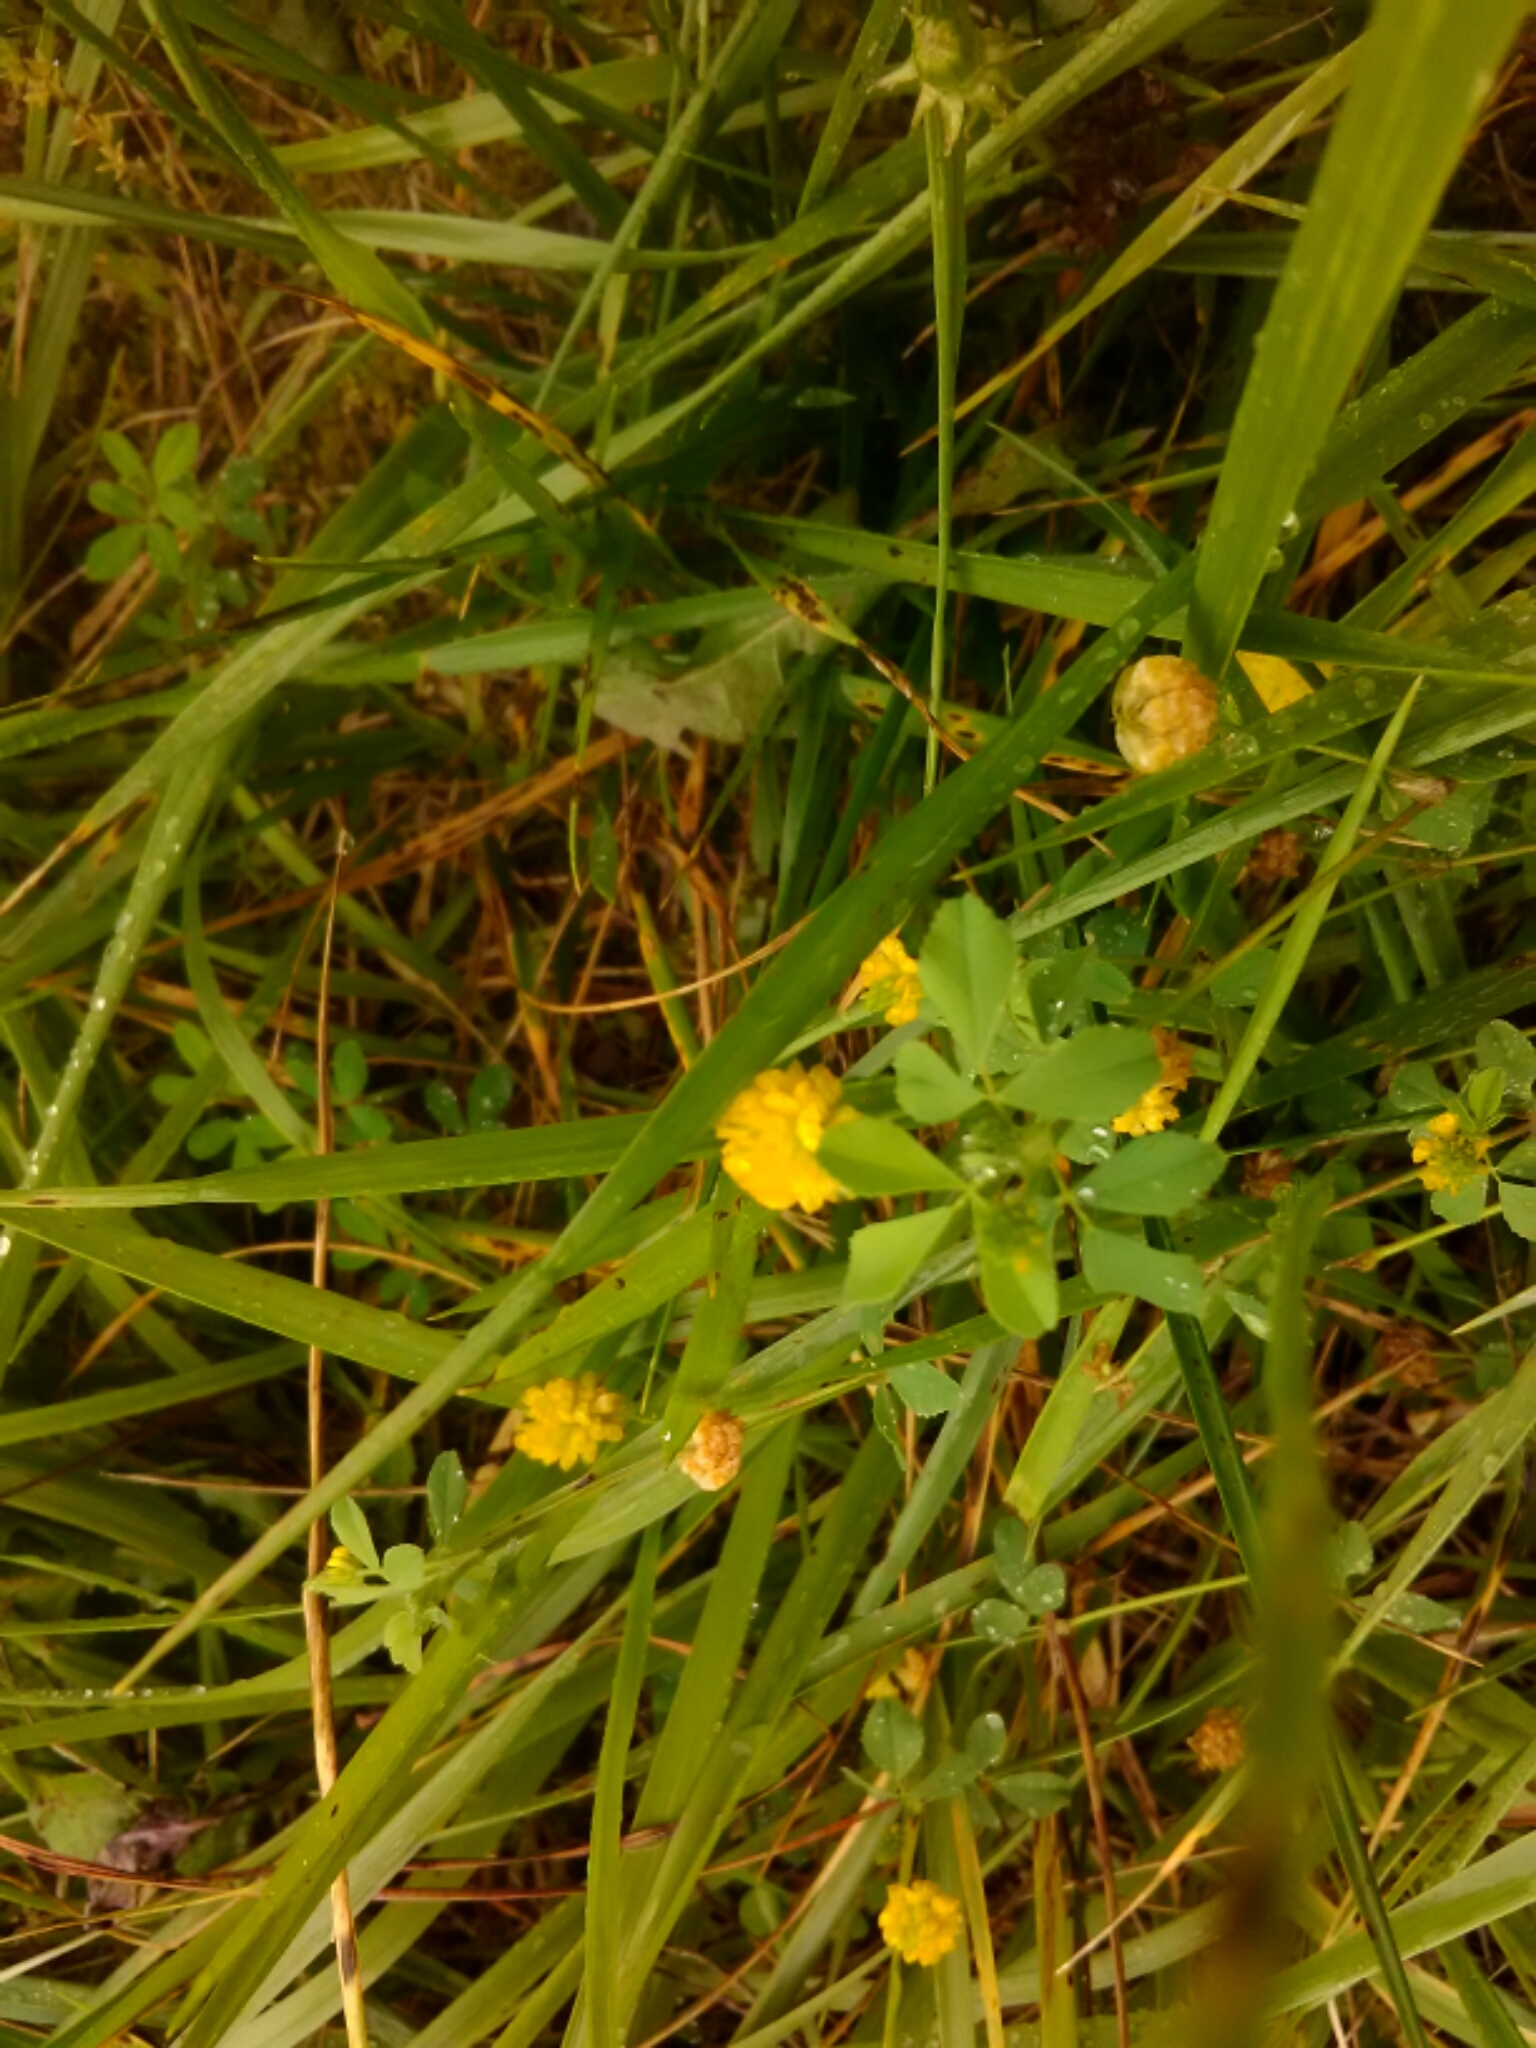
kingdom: Plantae
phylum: Tracheophyta
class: Magnoliopsida
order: Fabales
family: Fabaceae
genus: Trifolium
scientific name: Trifolium campestre
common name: Field clover
